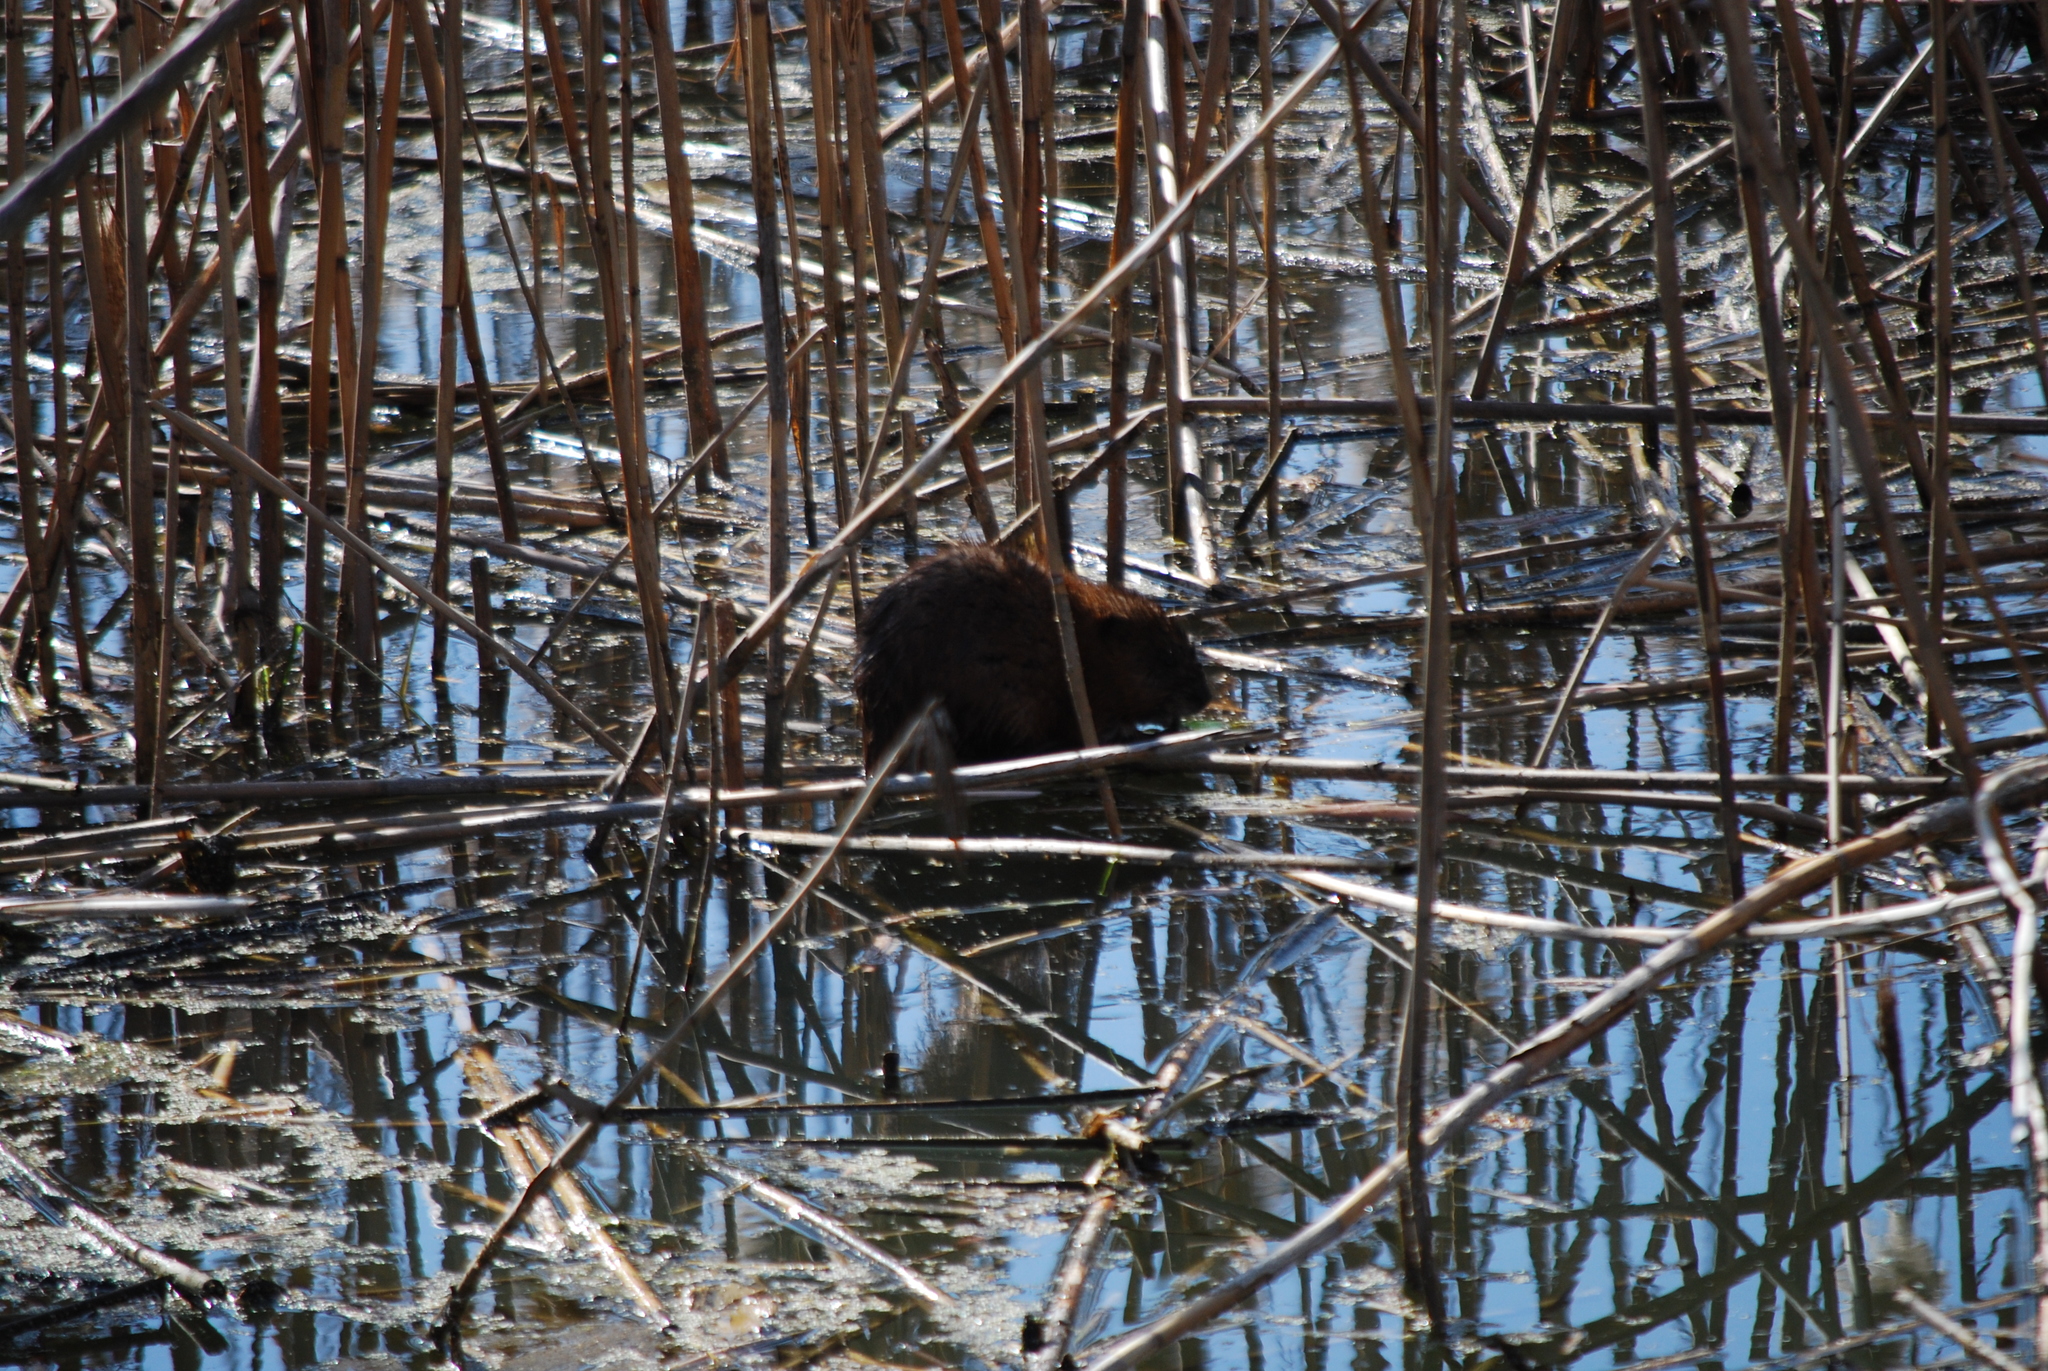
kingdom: Animalia
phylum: Chordata
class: Mammalia
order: Rodentia
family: Cricetidae
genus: Ondatra
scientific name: Ondatra zibethicus
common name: Muskrat
